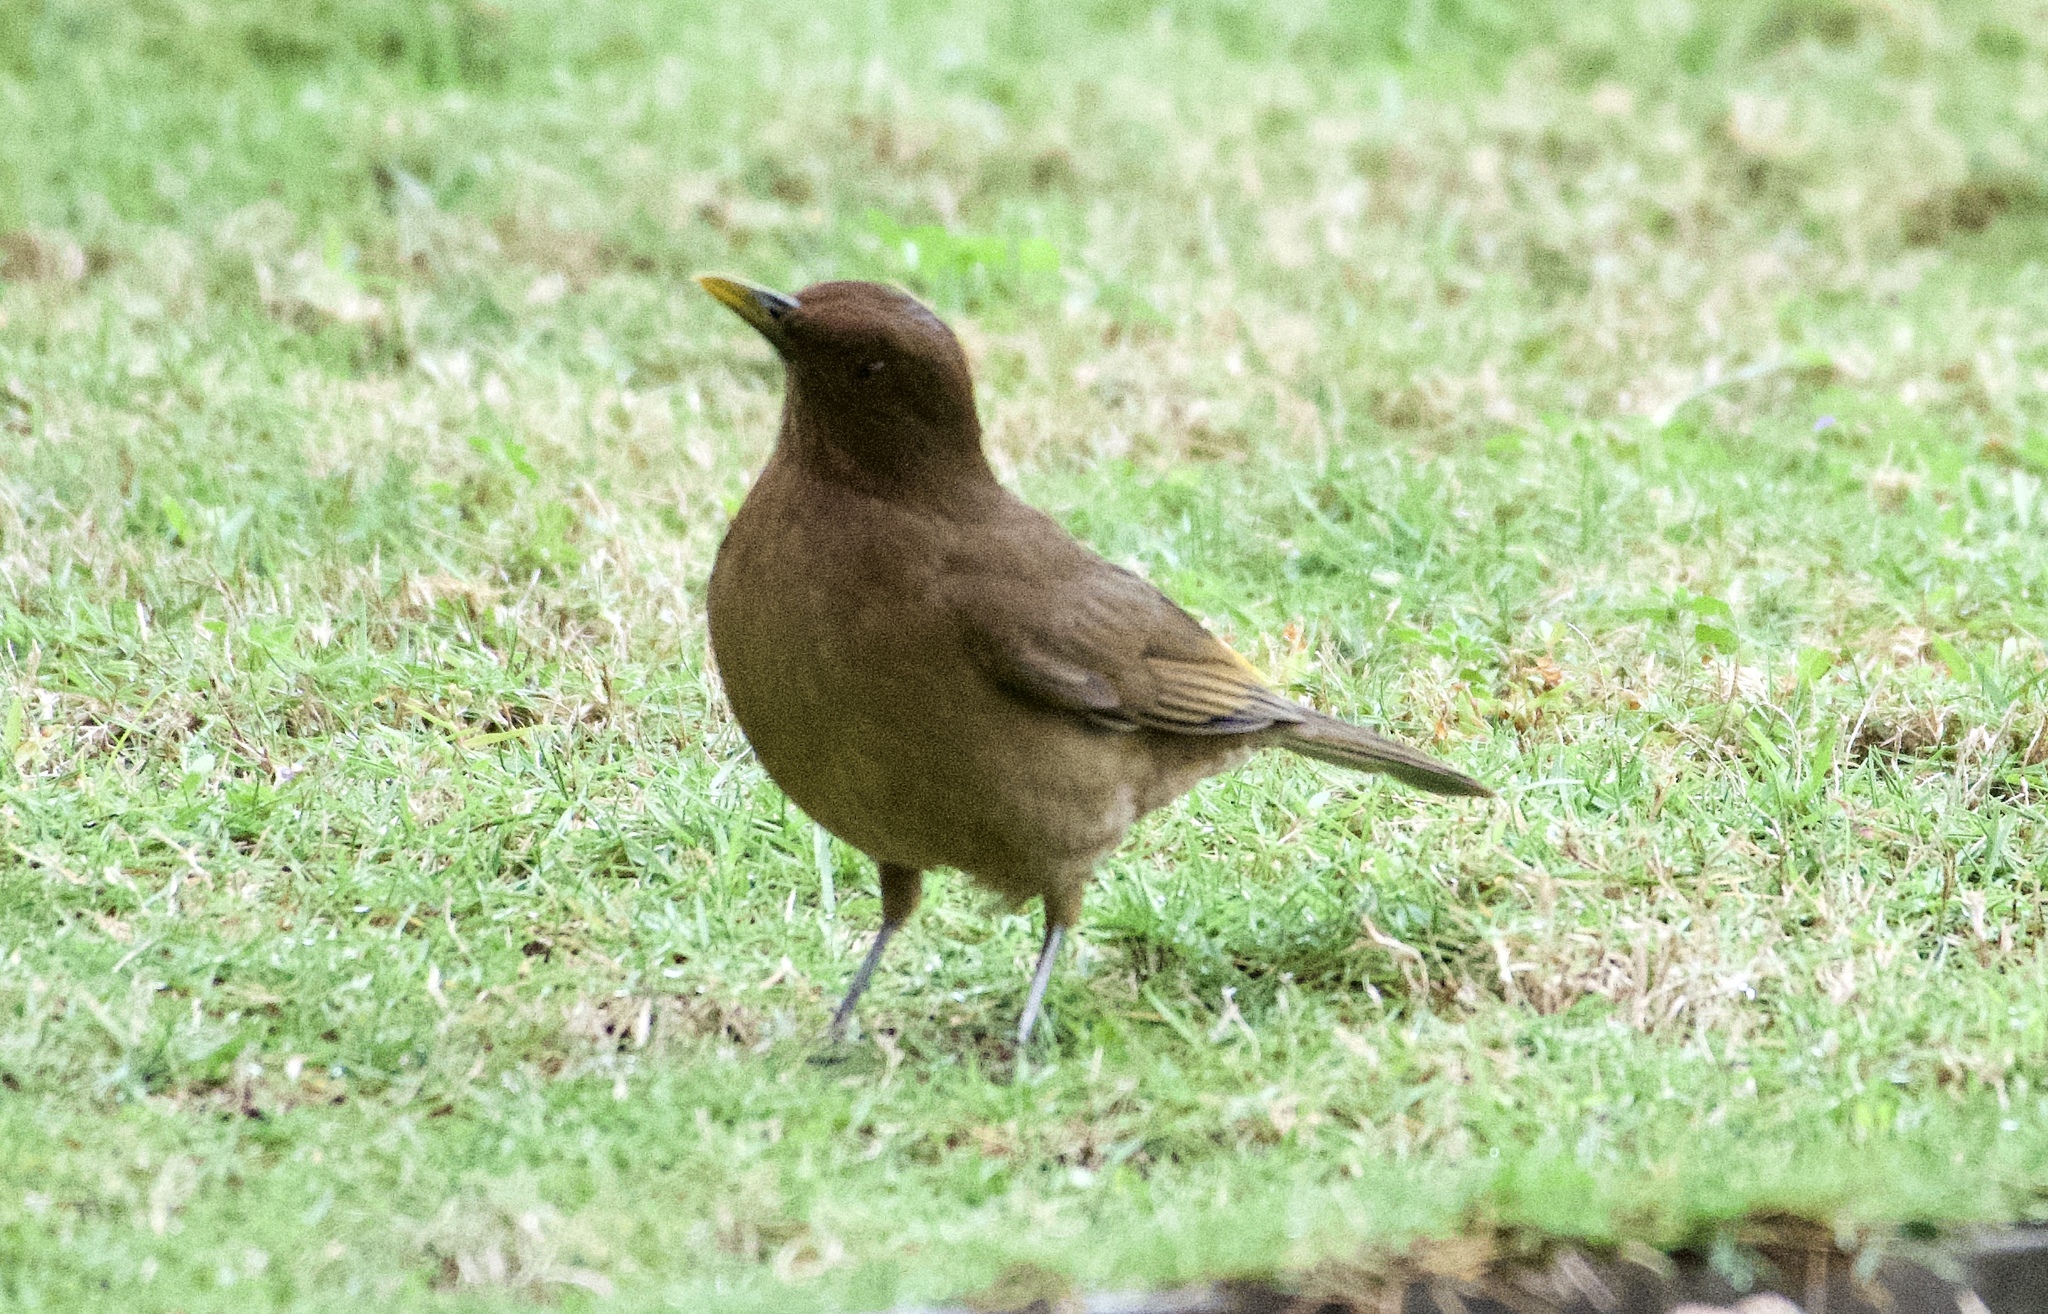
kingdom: Animalia
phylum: Chordata
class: Aves
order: Passeriformes
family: Turdidae
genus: Turdus
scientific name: Turdus grayi
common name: Clay-colored thrush
